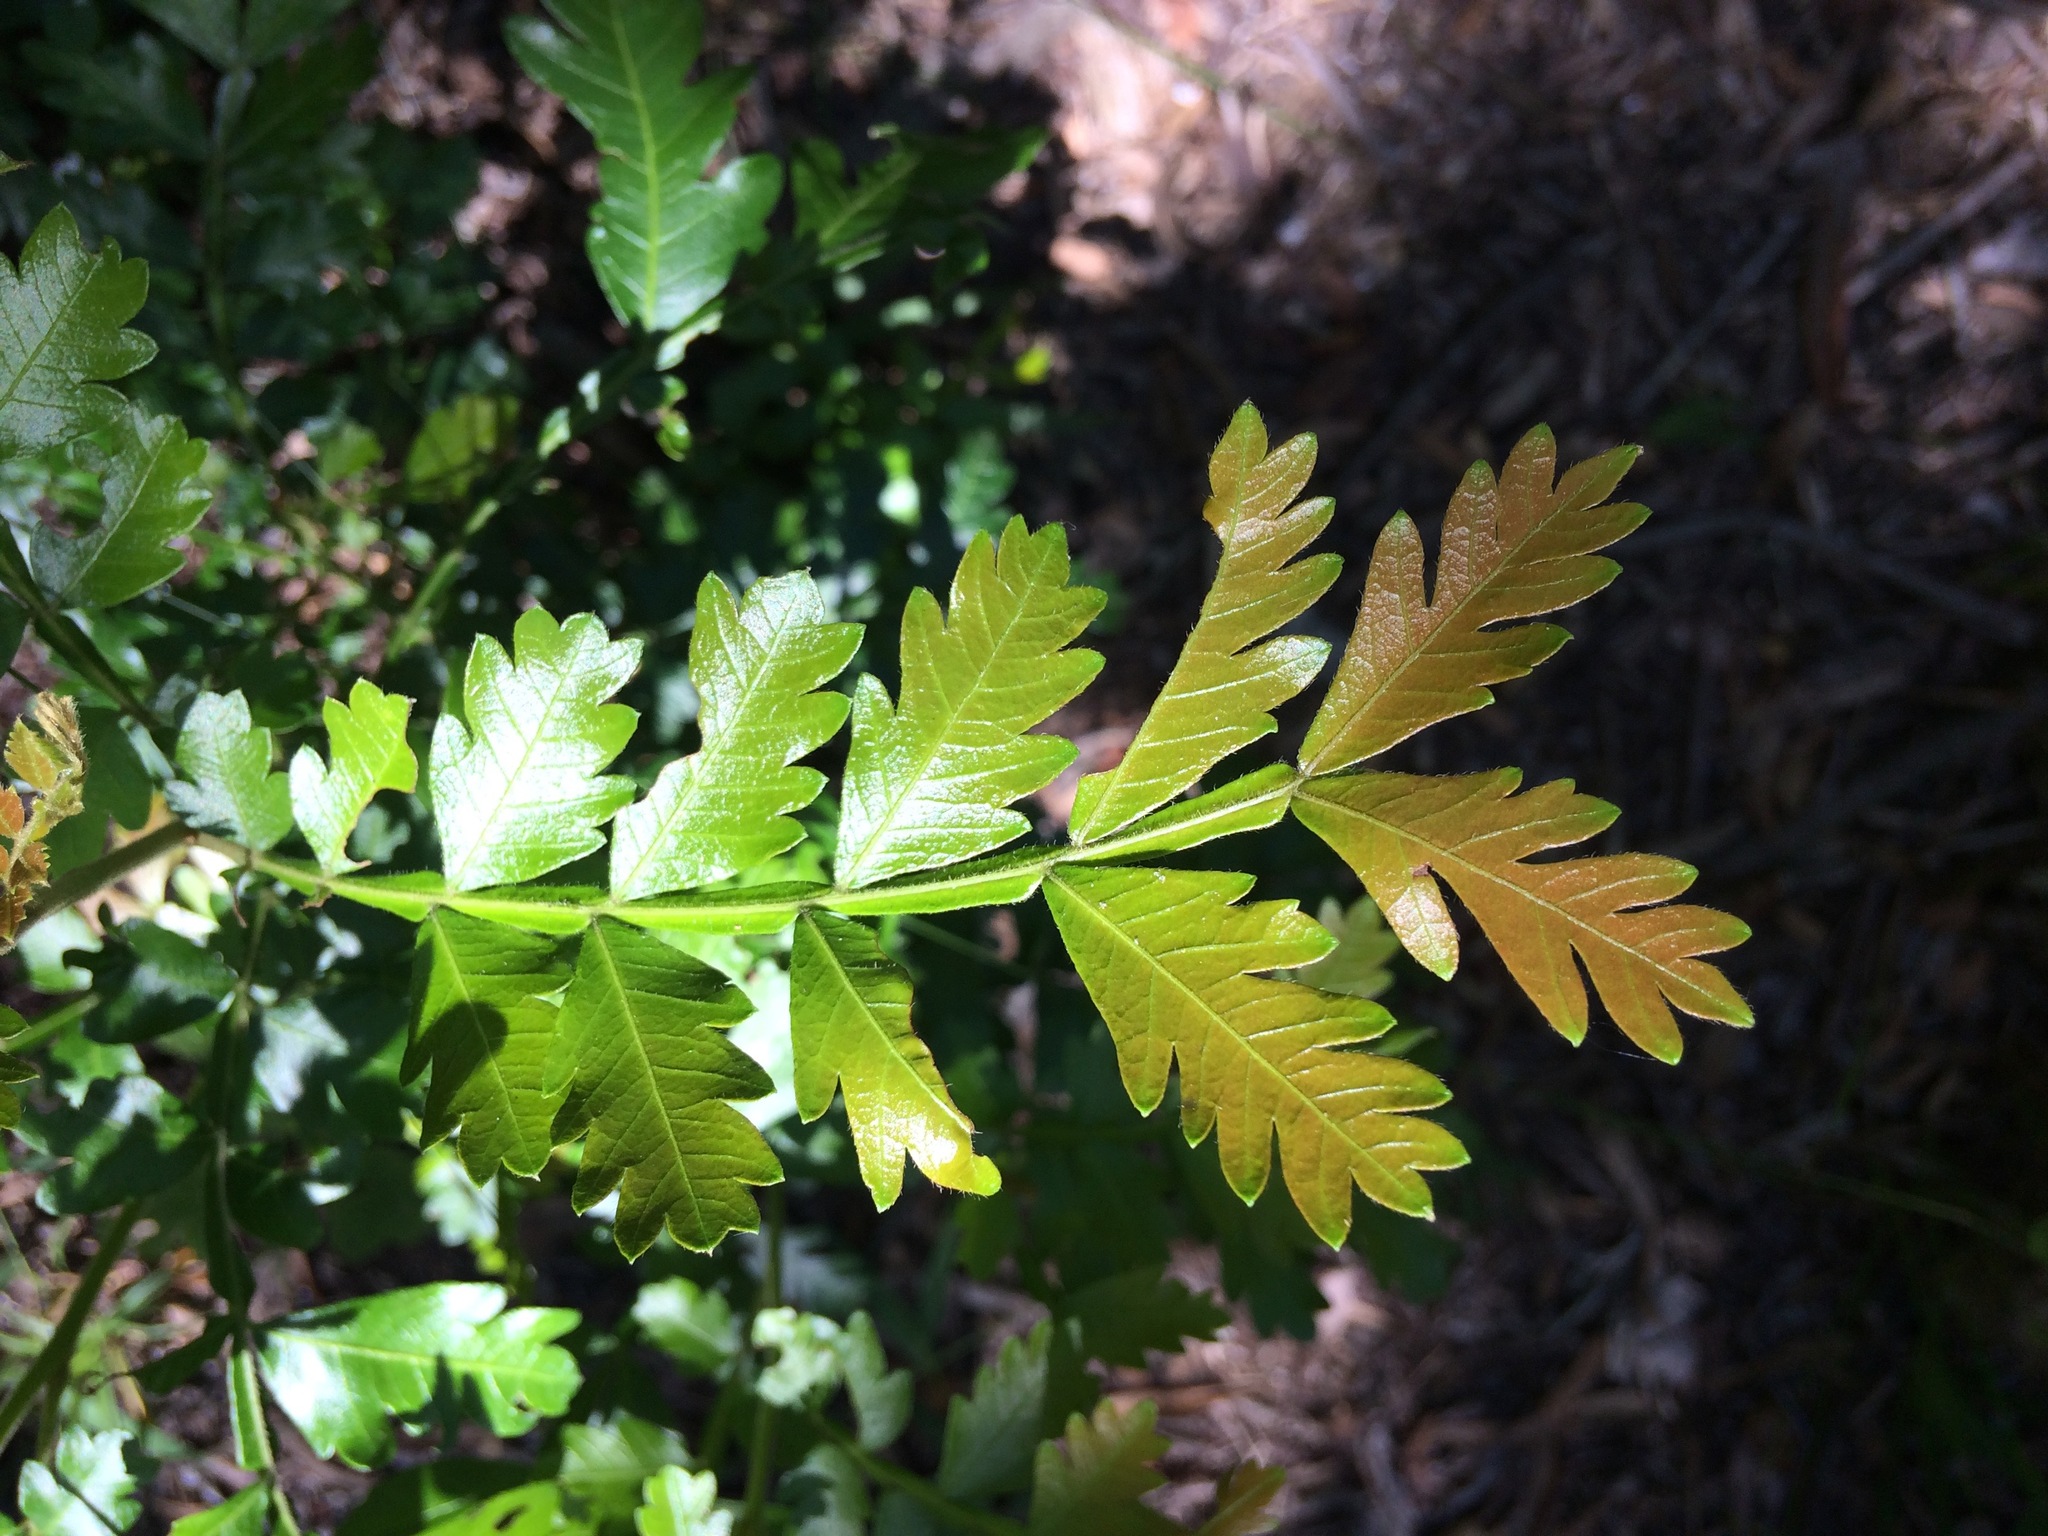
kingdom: Plantae
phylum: Tracheophyta
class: Magnoliopsida
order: Sapindales
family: Sapindaceae
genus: Hippobromus
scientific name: Hippobromus pauciflorus
